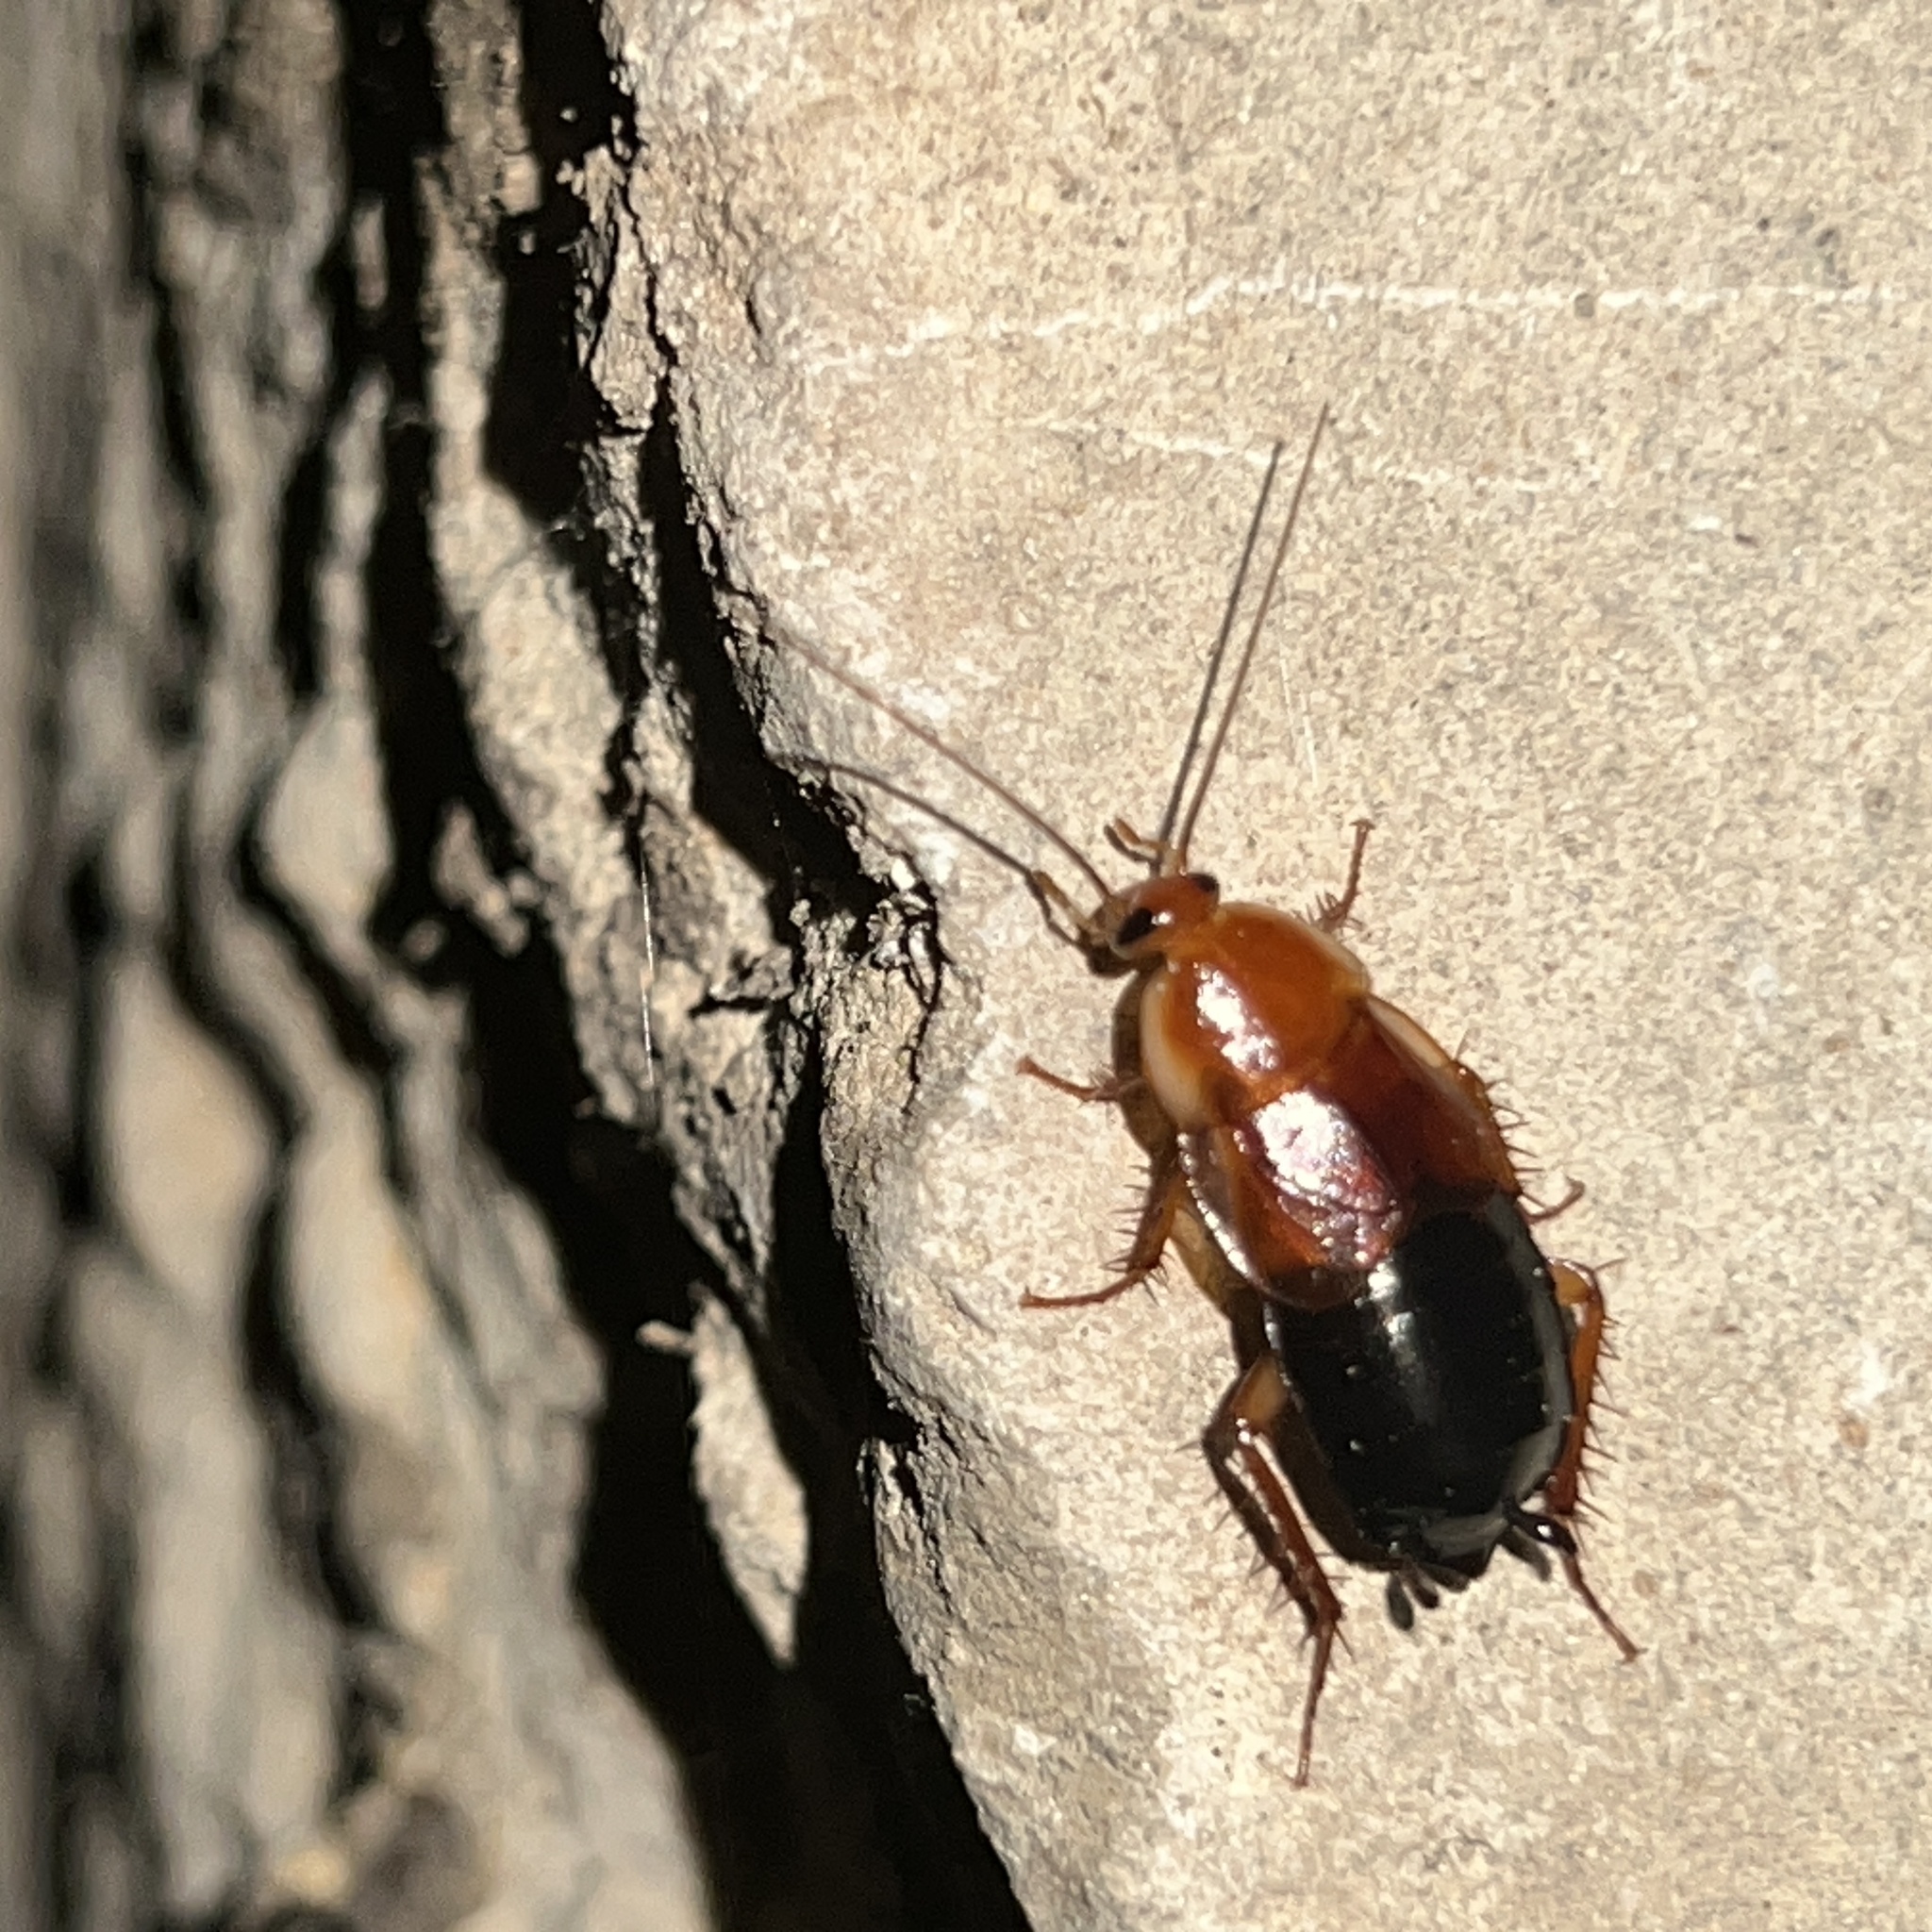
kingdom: Animalia
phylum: Arthropoda
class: Insecta
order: Blattodea
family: Ectobiidae
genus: Parcoblatta
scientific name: Parcoblatta fulvescens
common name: Fulvous wood cockroach
